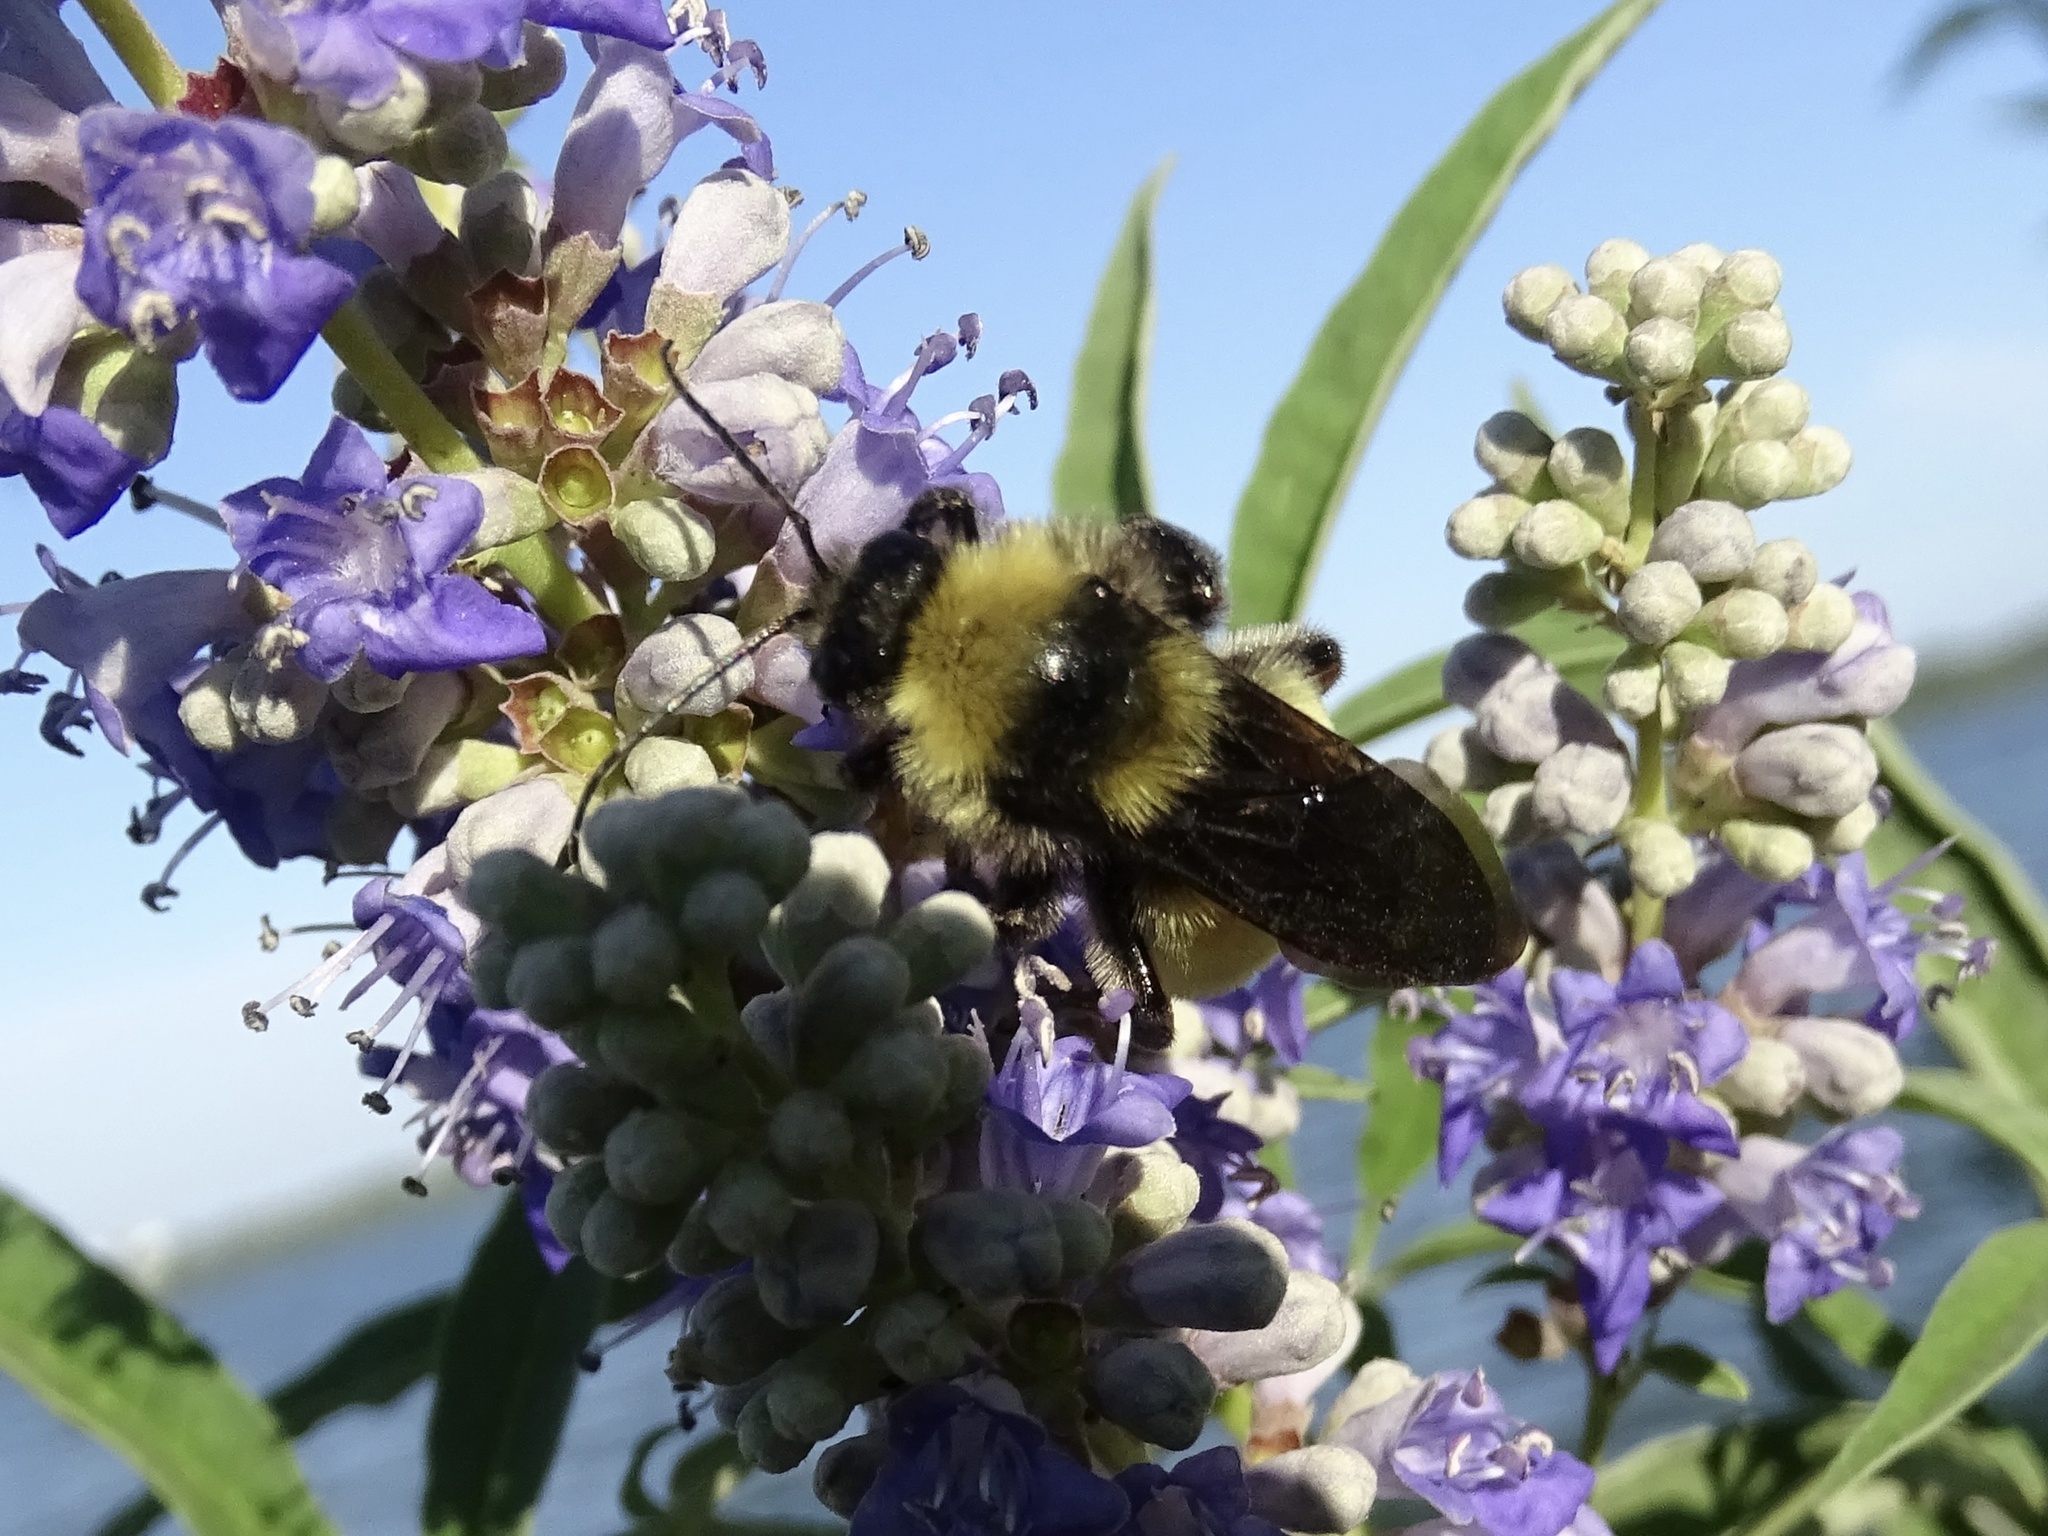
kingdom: Animalia
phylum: Arthropoda
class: Insecta
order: Hymenoptera
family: Apidae
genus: Bombus
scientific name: Bombus pensylvanicus
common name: Bumble bee
